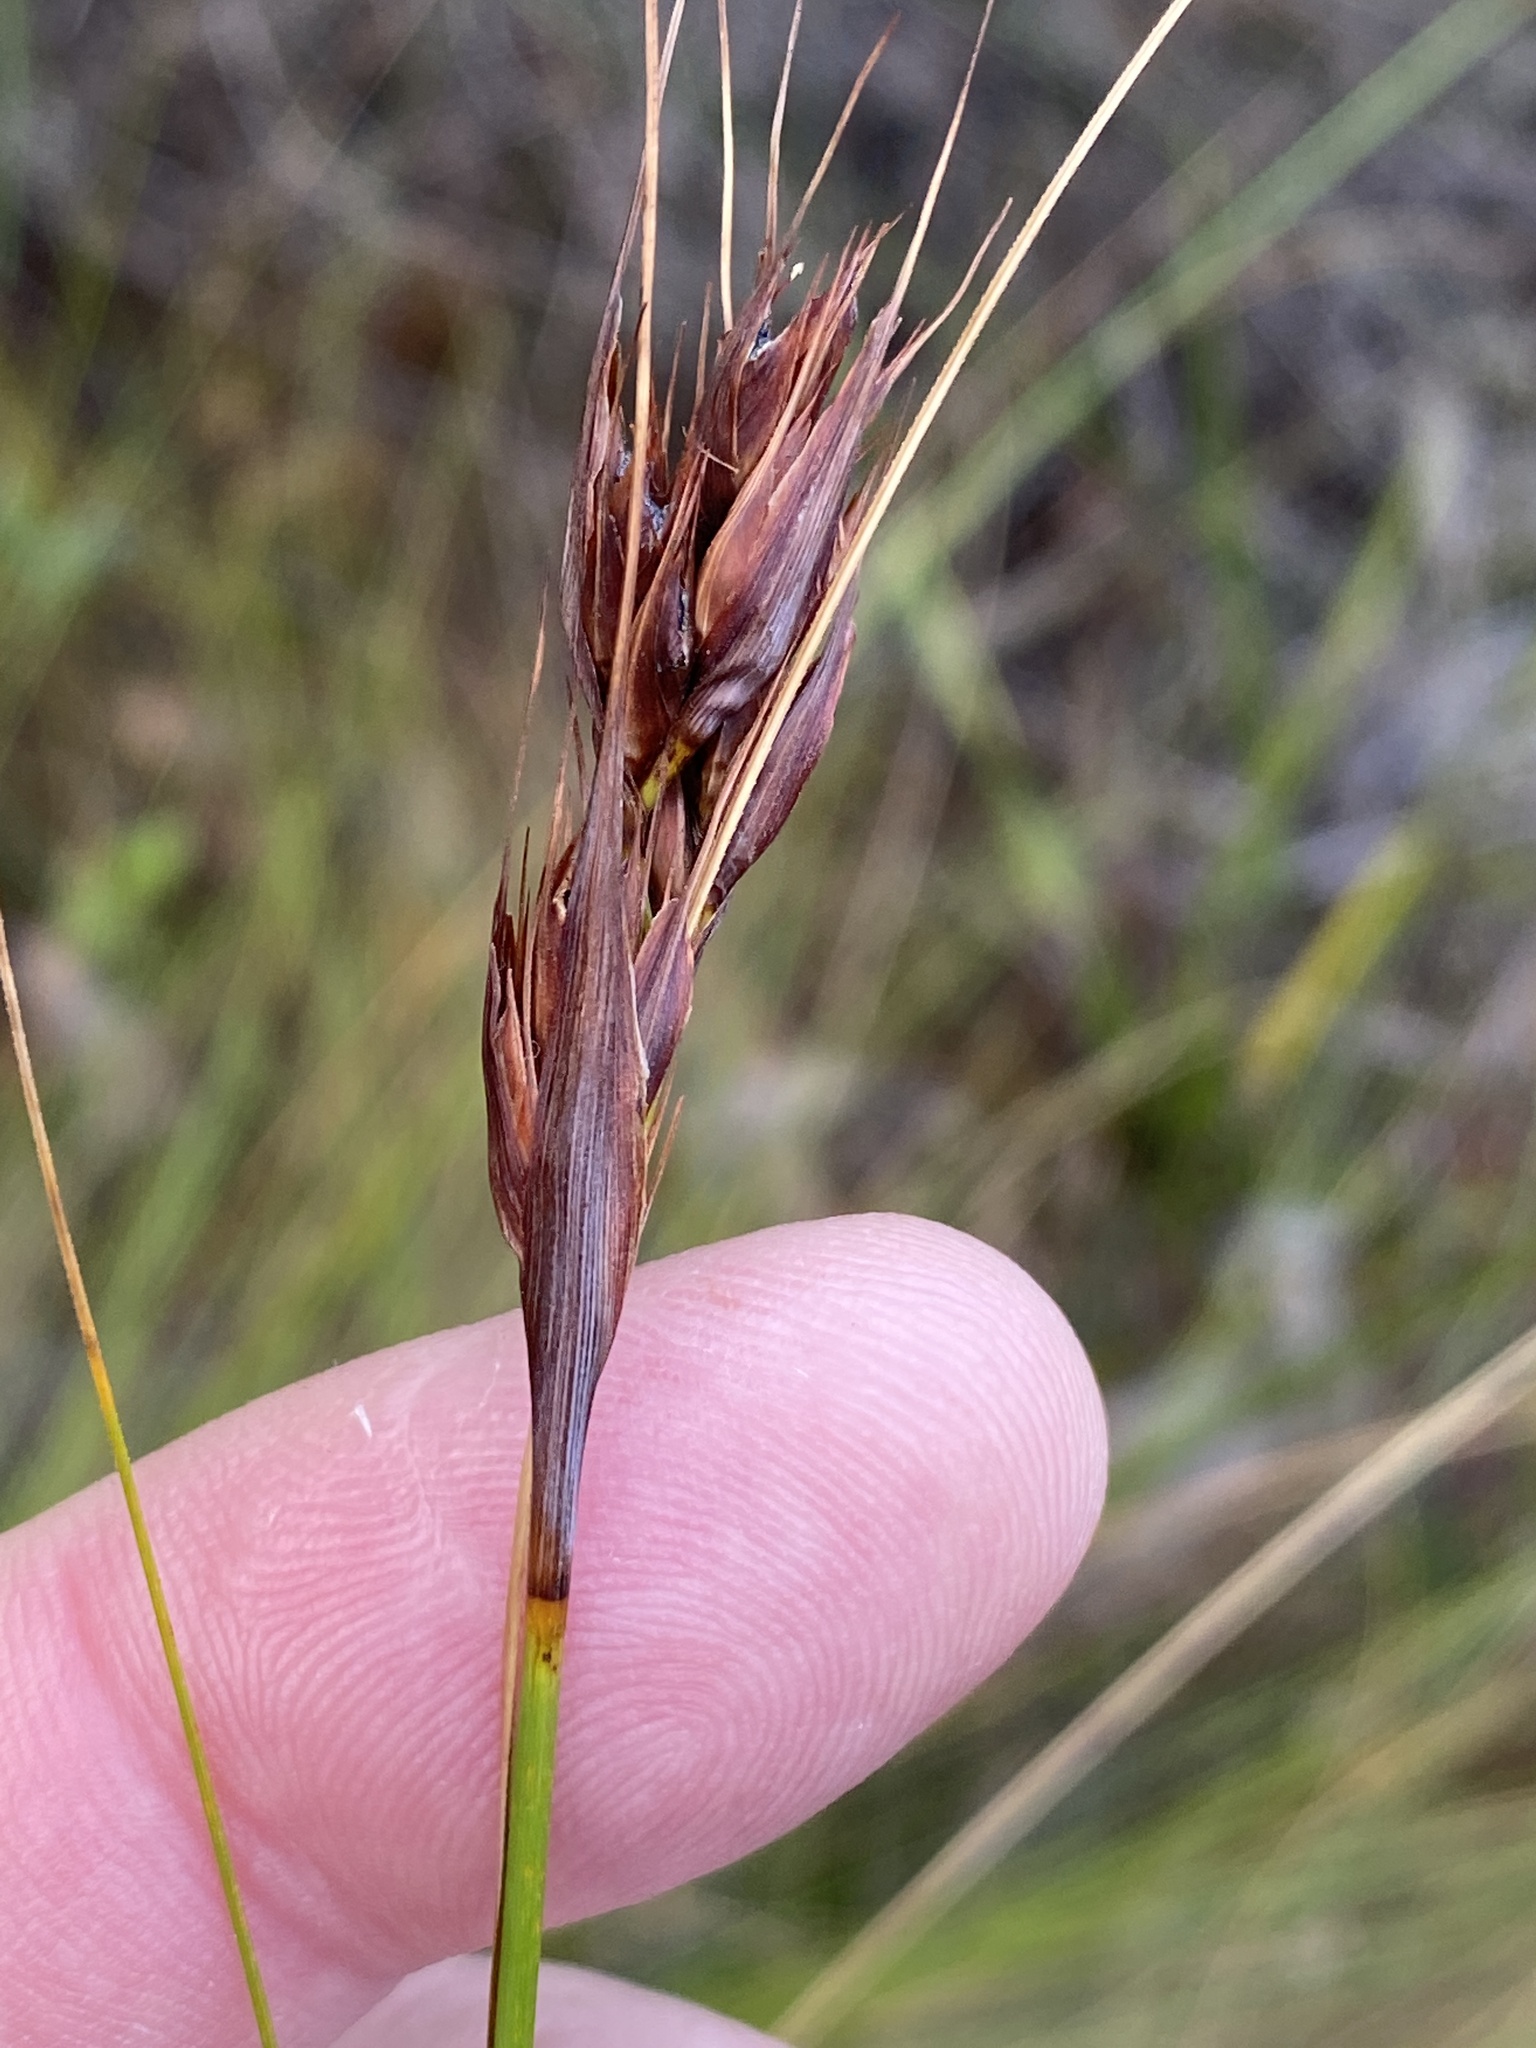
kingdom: Plantae
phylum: Tracheophyta
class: Liliopsida
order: Poales
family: Cyperaceae
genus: Tetraria
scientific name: Tetraria ustulata
